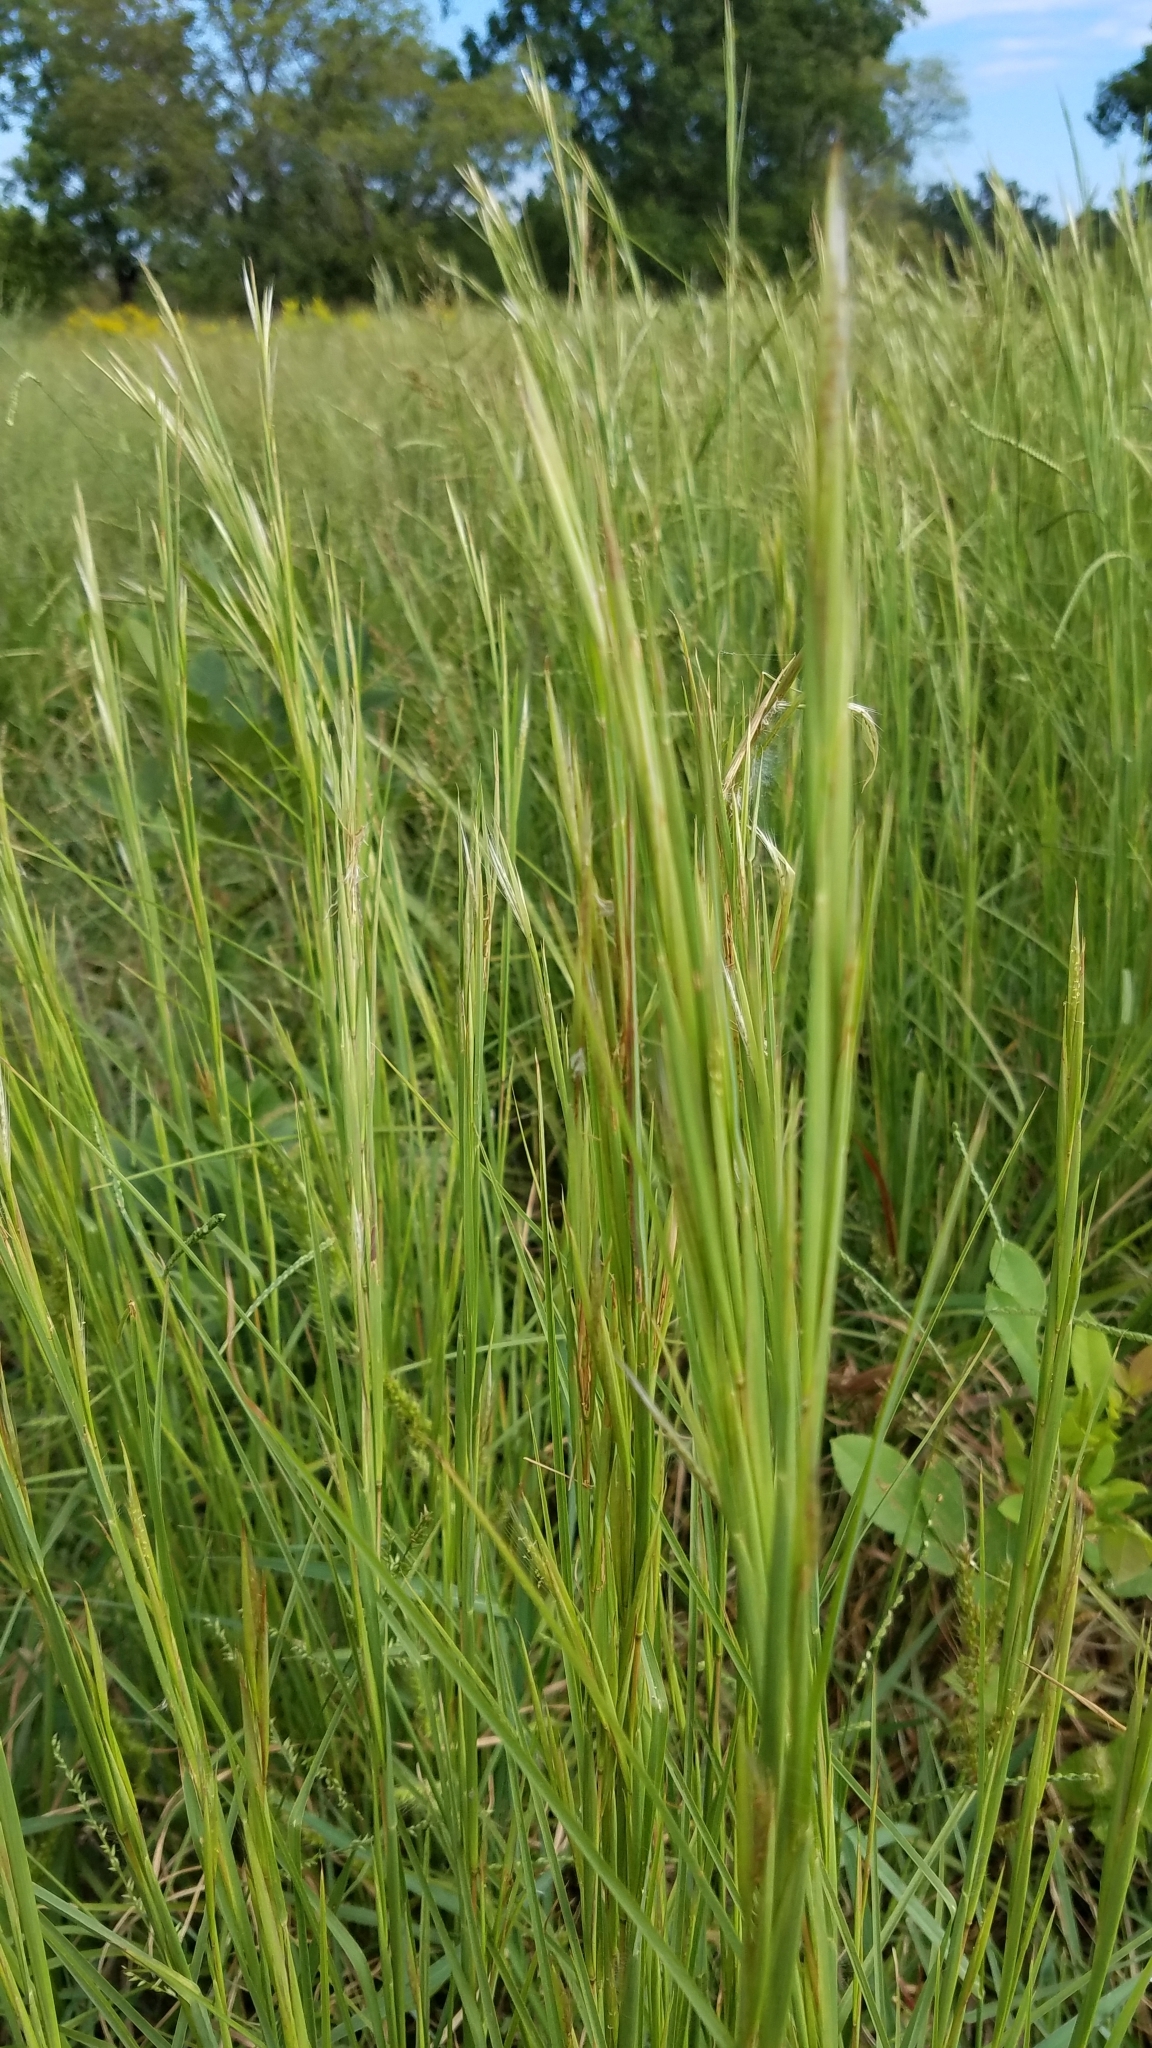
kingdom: Plantae
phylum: Tracheophyta
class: Liliopsida
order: Poales
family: Poaceae
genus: Andropogon
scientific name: Andropogon virginicus
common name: Broomsedge bluestem
